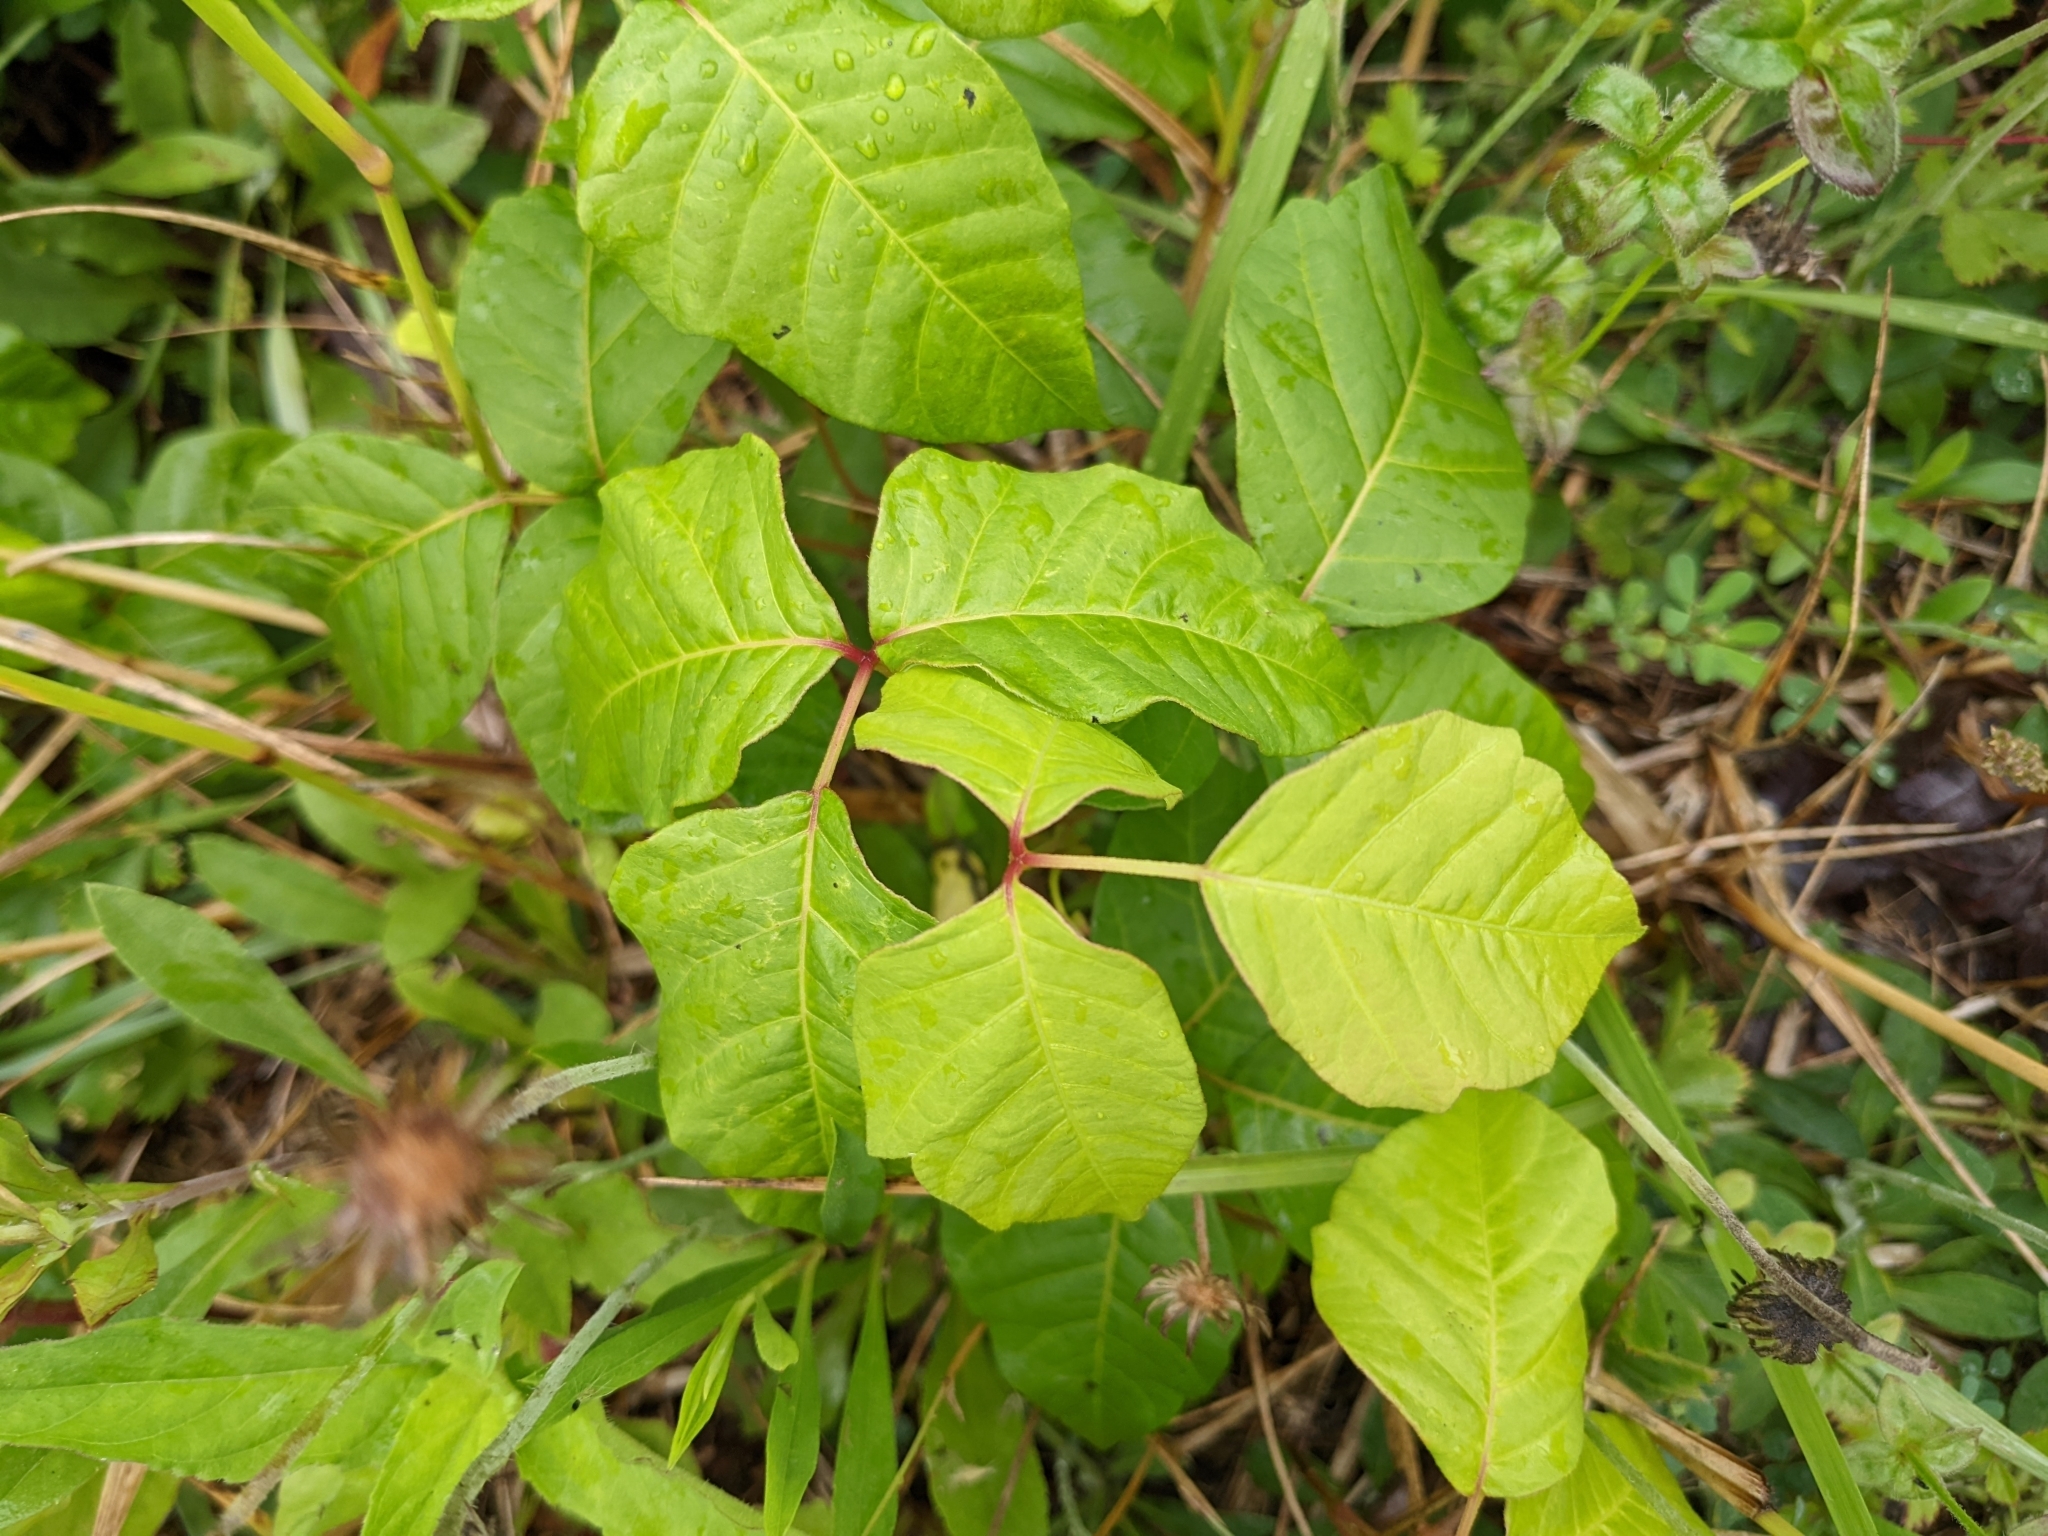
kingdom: Plantae
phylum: Tracheophyta
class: Magnoliopsida
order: Sapindales
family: Anacardiaceae
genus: Toxicodendron
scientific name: Toxicodendron radicans
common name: Poison ivy
